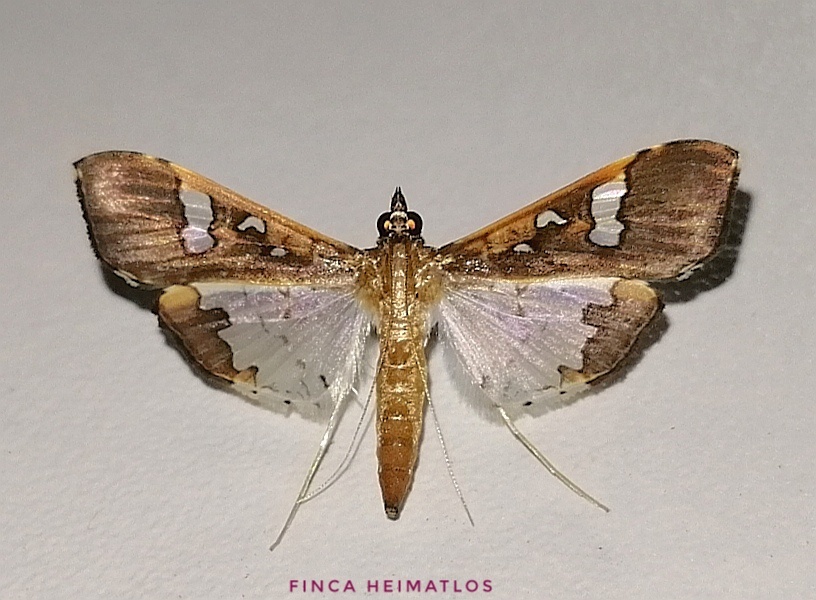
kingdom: Animalia
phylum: Arthropoda
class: Insecta
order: Lepidoptera
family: Crambidae
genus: Maruca
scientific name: Maruca vitrata
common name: Maruca pod borer
